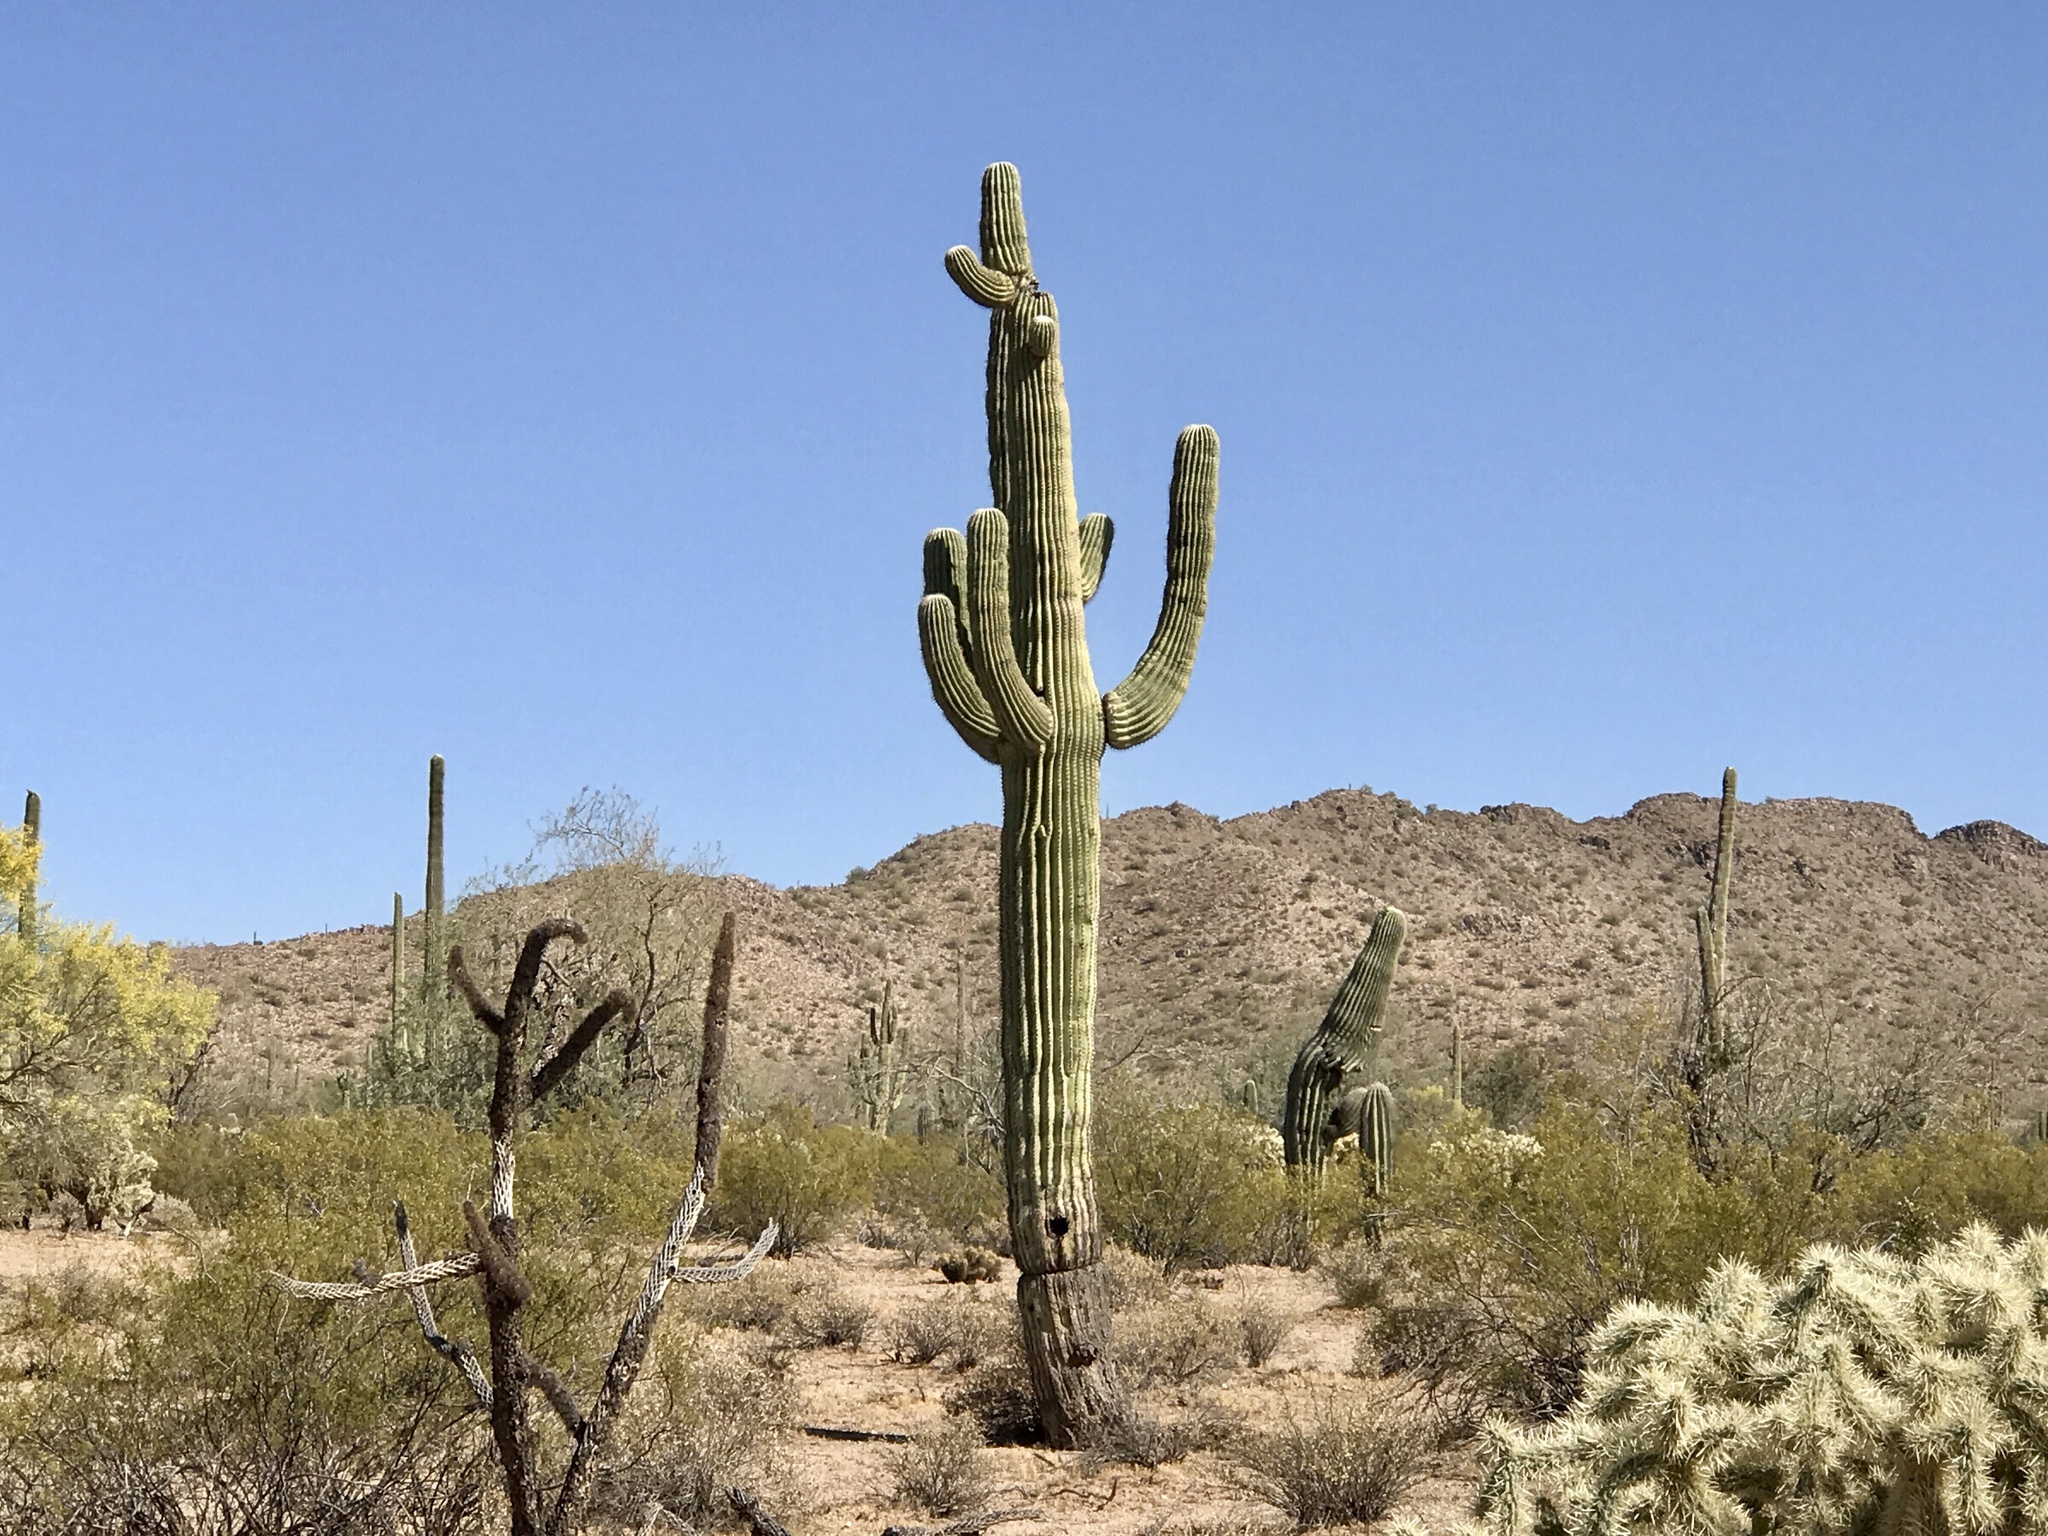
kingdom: Plantae
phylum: Tracheophyta
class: Magnoliopsida
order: Caryophyllales
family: Cactaceae
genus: Carnegiea
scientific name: Carnegiea gigantea
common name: Saguaro
